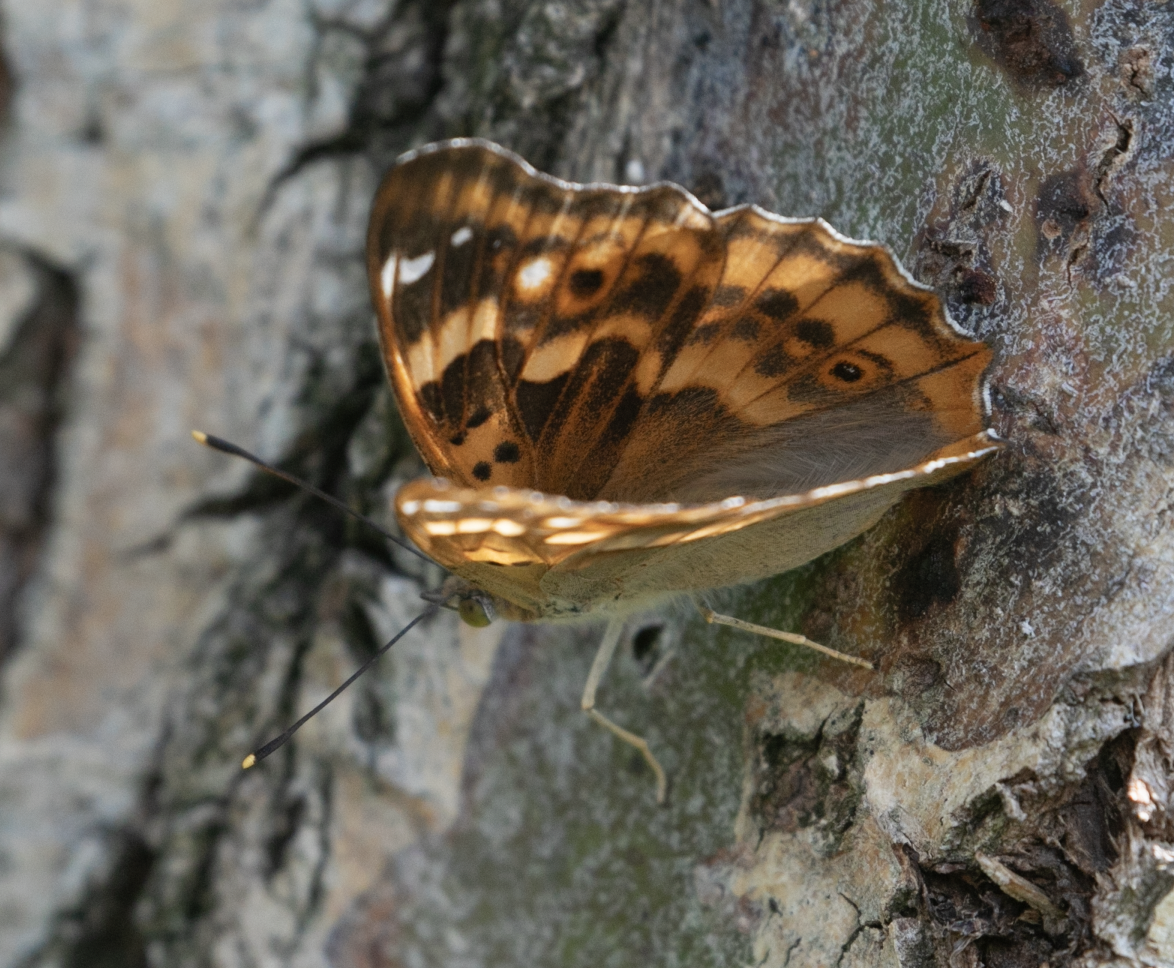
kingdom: Animalia
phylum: Arthropoda
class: Insecta
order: Lepidoptera
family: Nymphalidae
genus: Apatura
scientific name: Apatura ilia
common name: Lesser purple emperor
